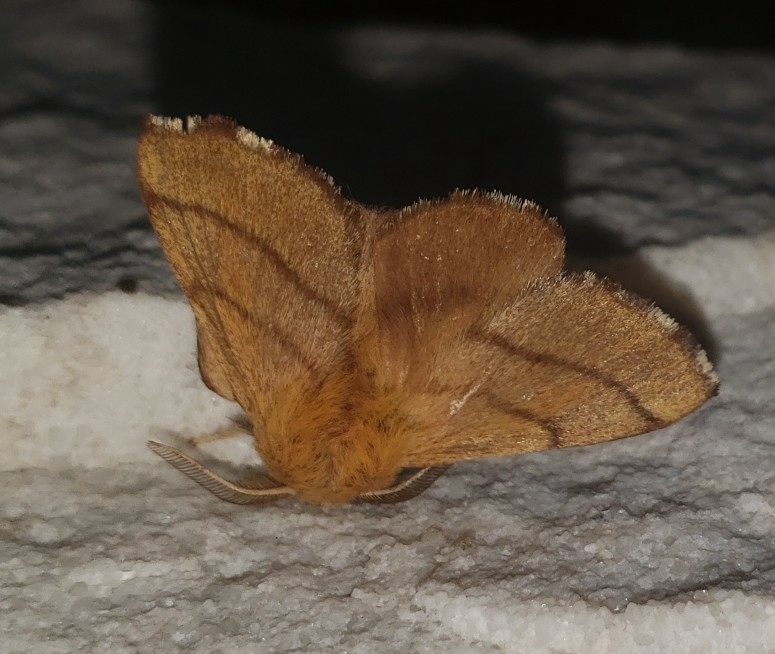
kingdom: Animalia
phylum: Arthropoda
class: Insecta
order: Lepidoptera
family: Lasiocampidae
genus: Malacosoma
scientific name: Malacosoma disstria
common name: Forest tent caterpillar
